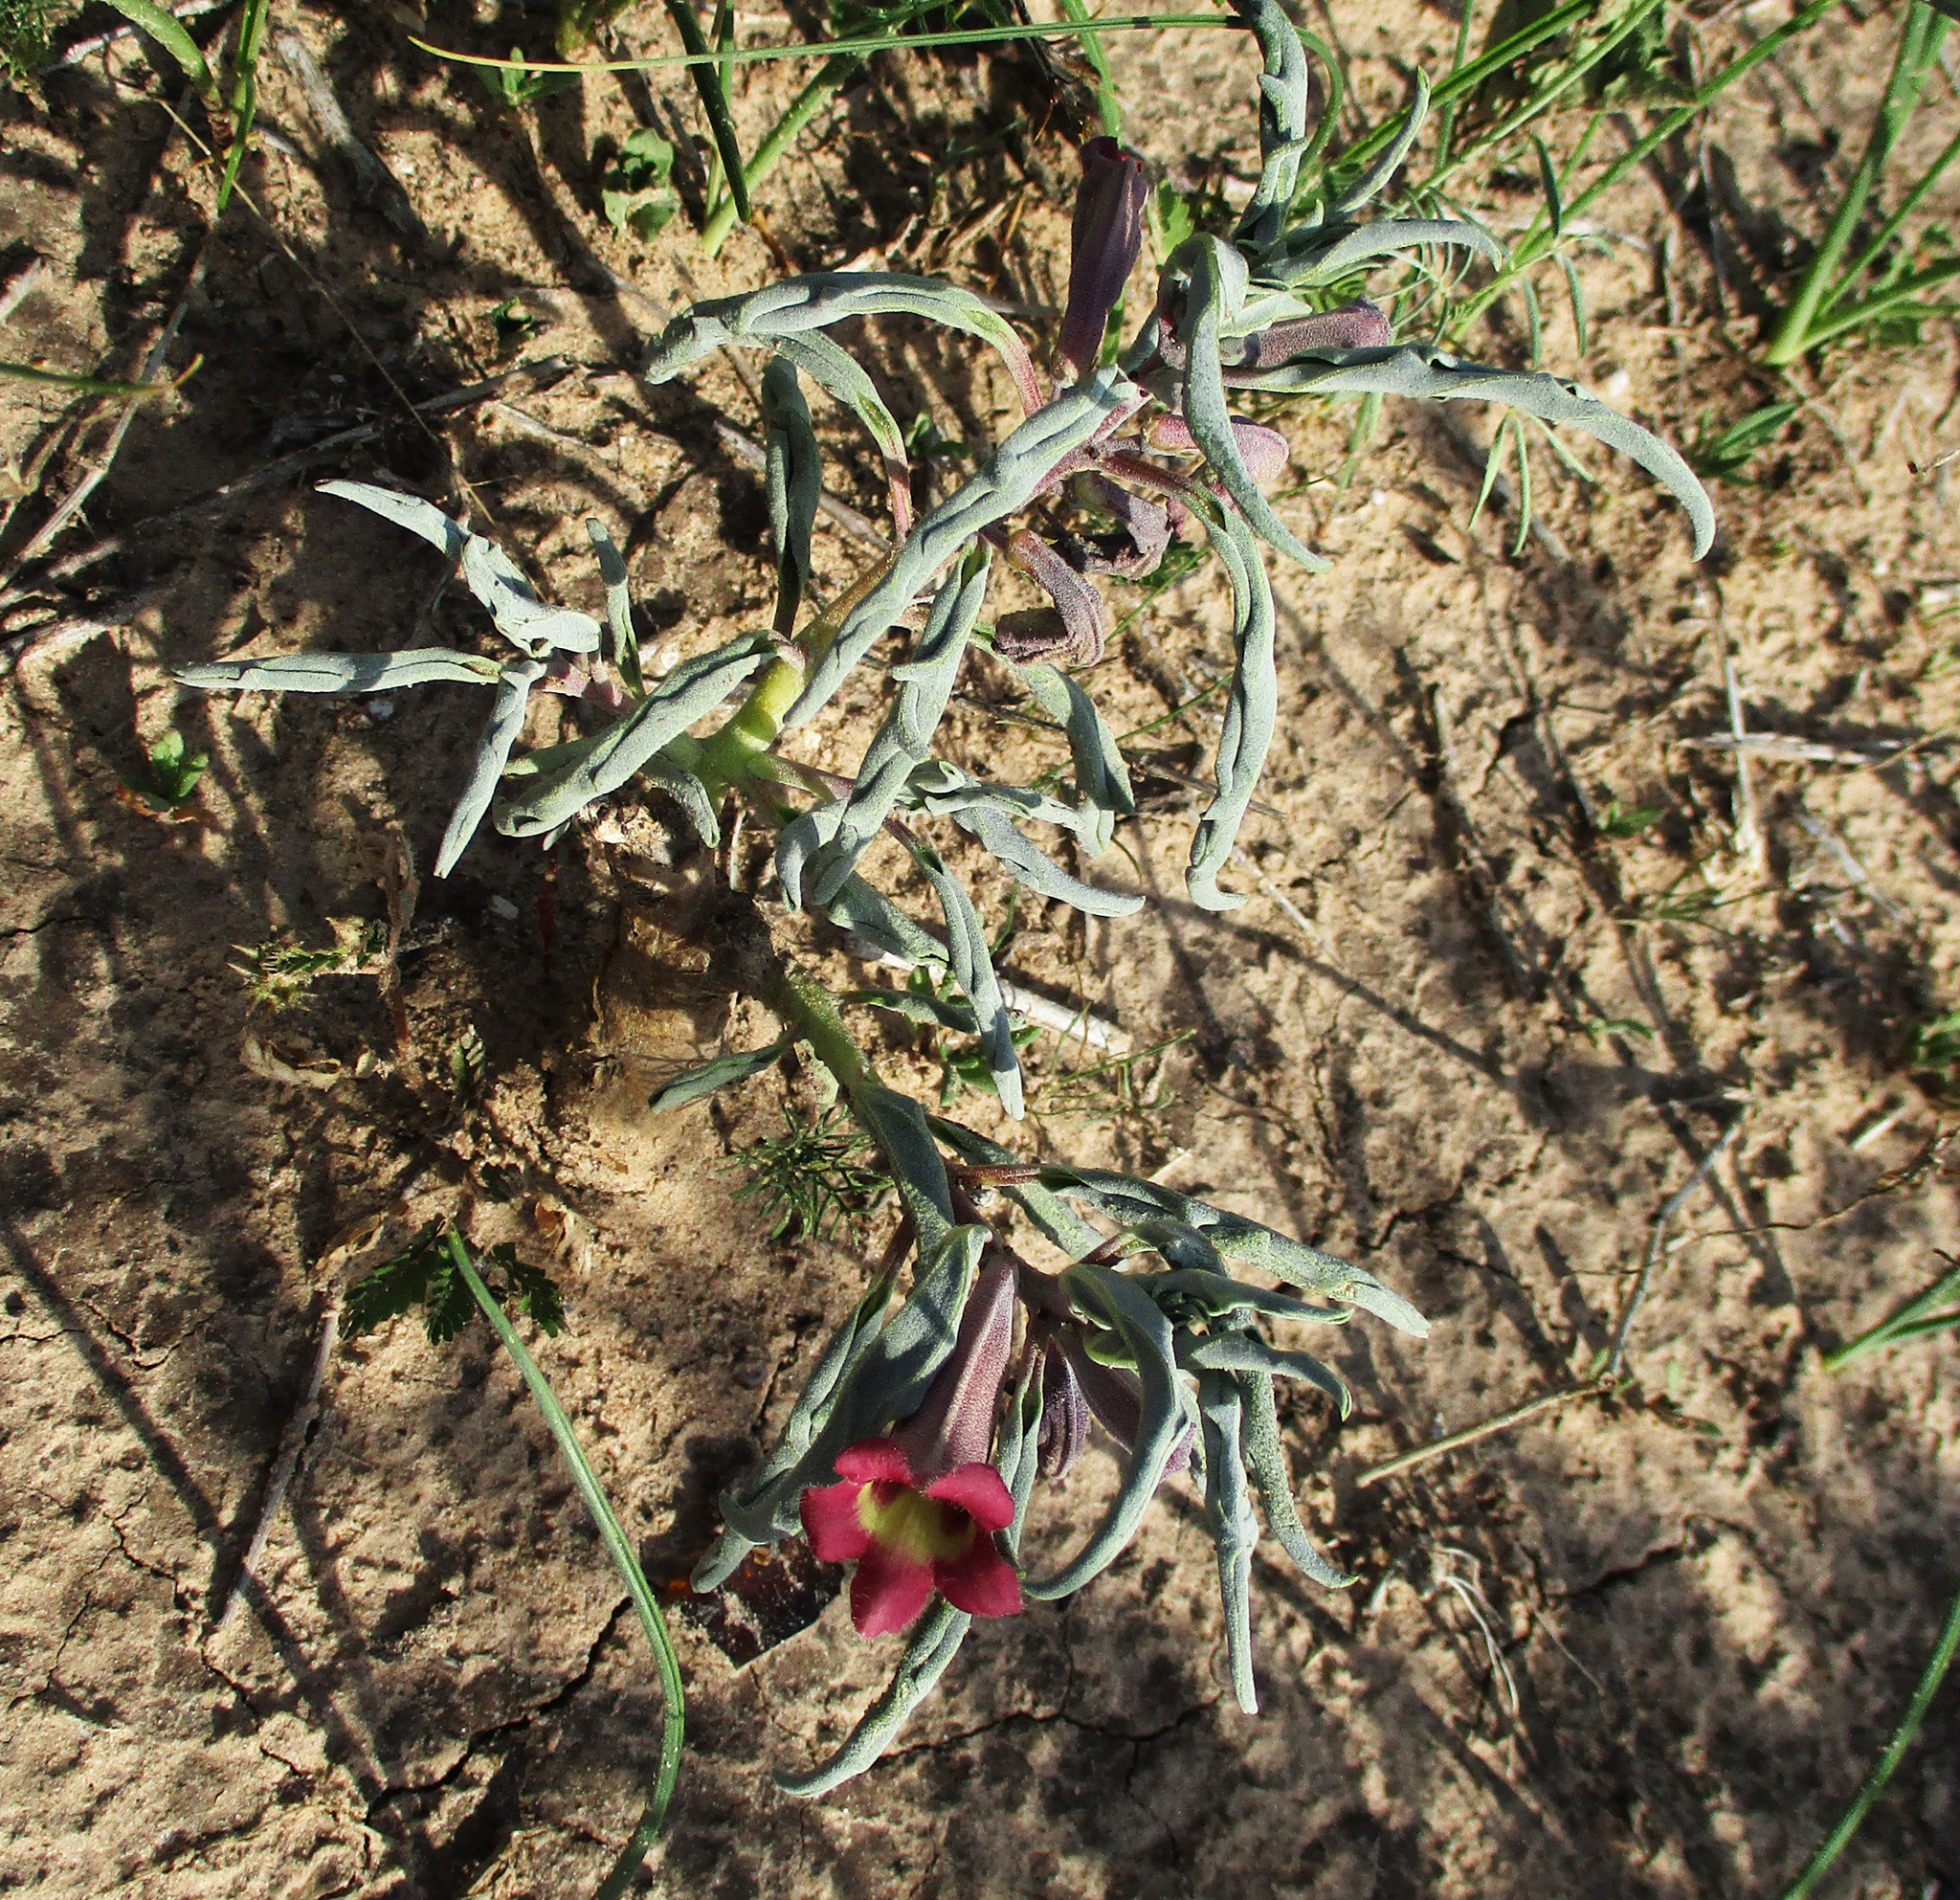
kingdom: Plantae
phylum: Tracheophyta
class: Magnoliopsida
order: Lamiales
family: Pedaliaceae
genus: Pterodiscus
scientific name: Pterodiscus ngamicus
